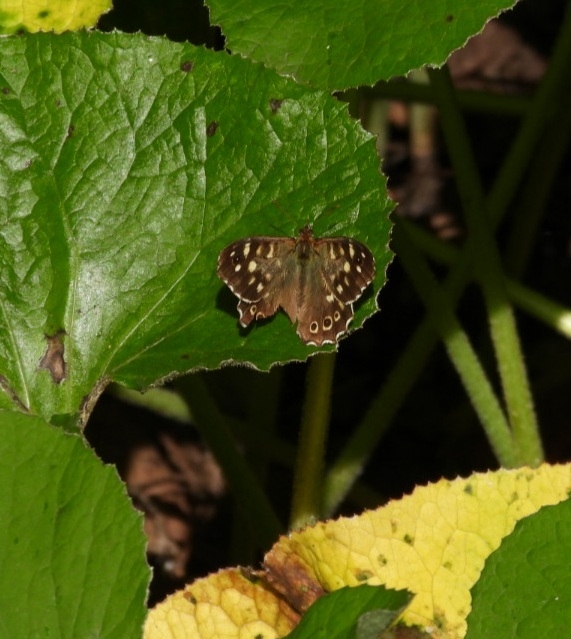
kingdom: Animalia
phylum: Arthropoda
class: Insecta
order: Lepidoptera
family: Nymphalidae
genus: Pararge
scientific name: Pararge aegeria
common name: Speckled wood
